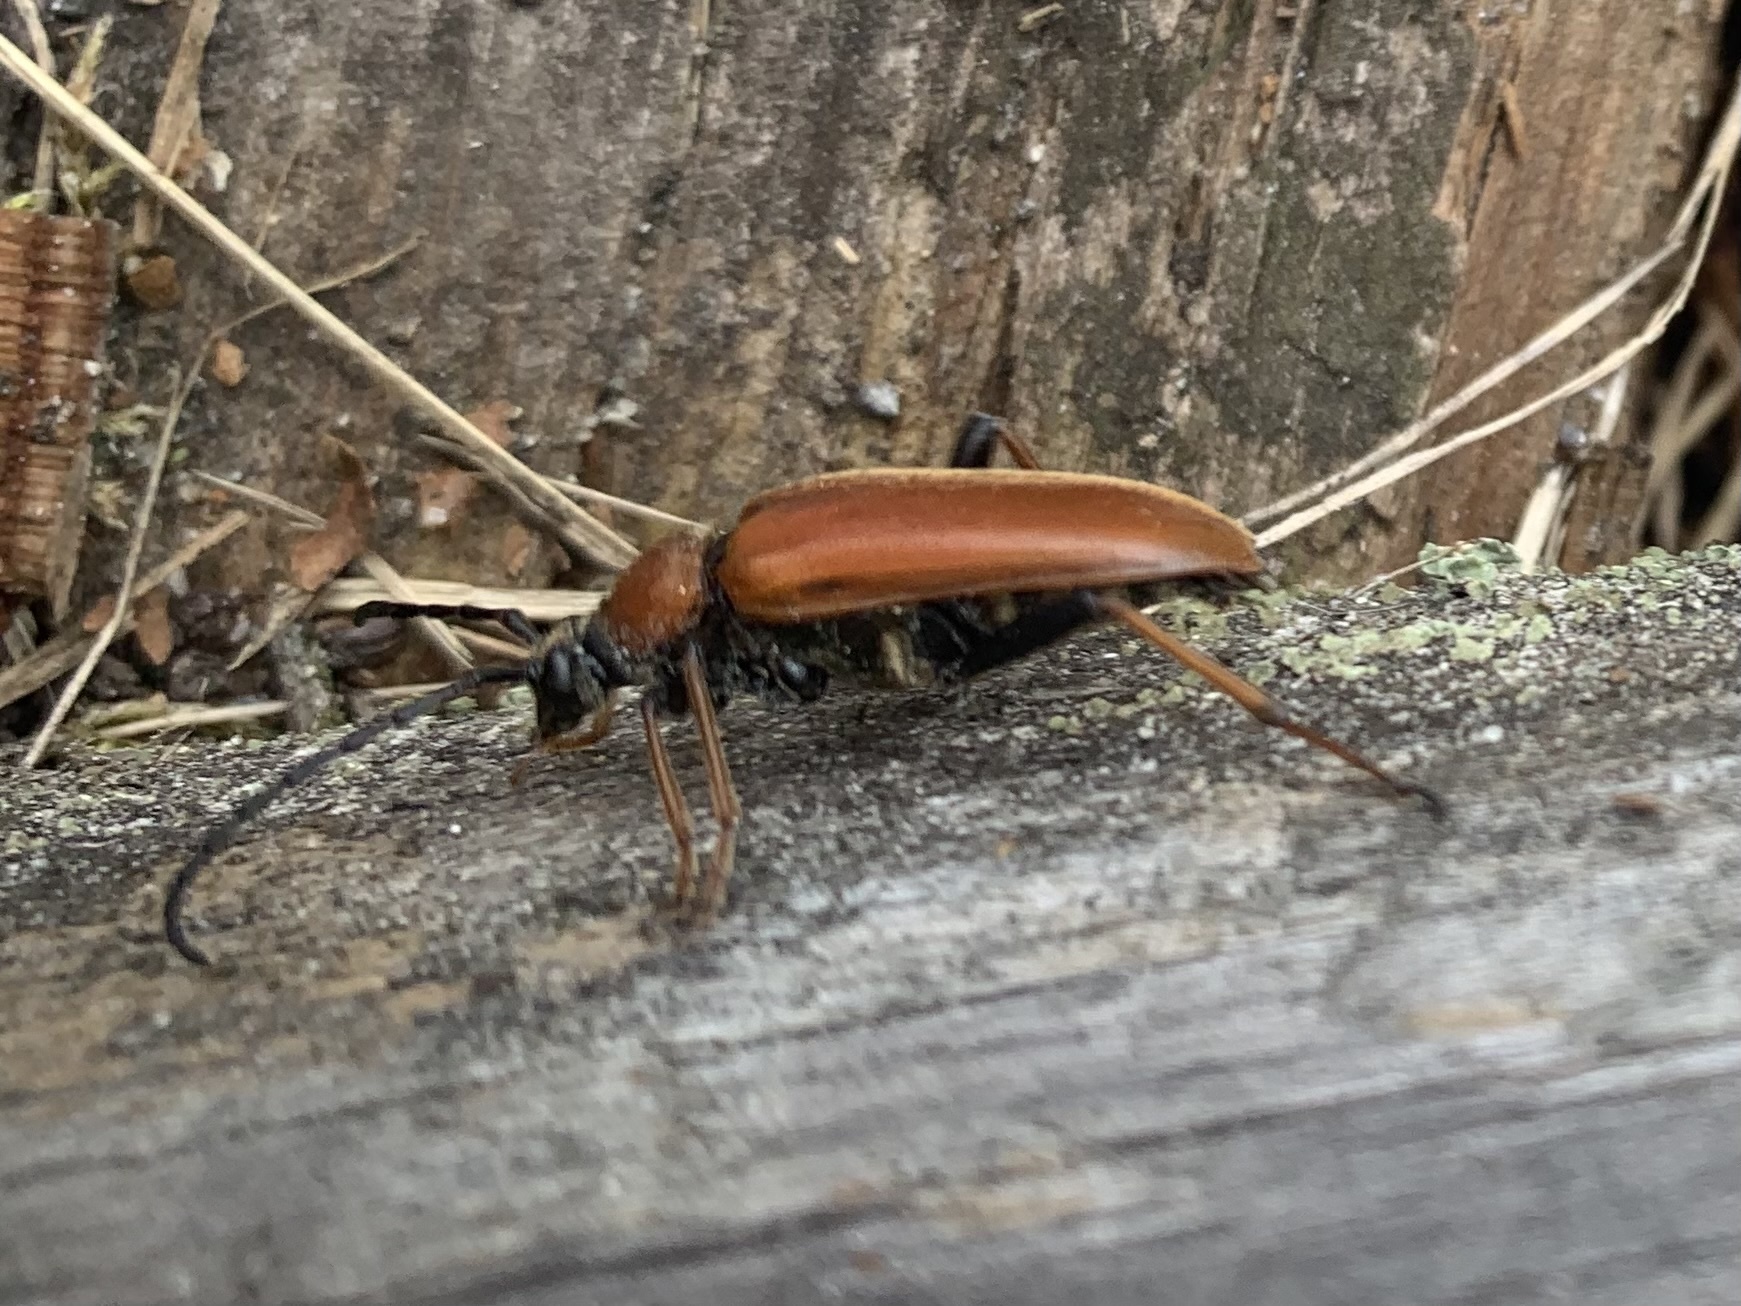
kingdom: Animalia
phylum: Arthropoda
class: Insecta
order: Coleoptera
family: Cerambycidae
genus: Stictoleptura
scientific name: Stictoleptura rubra
